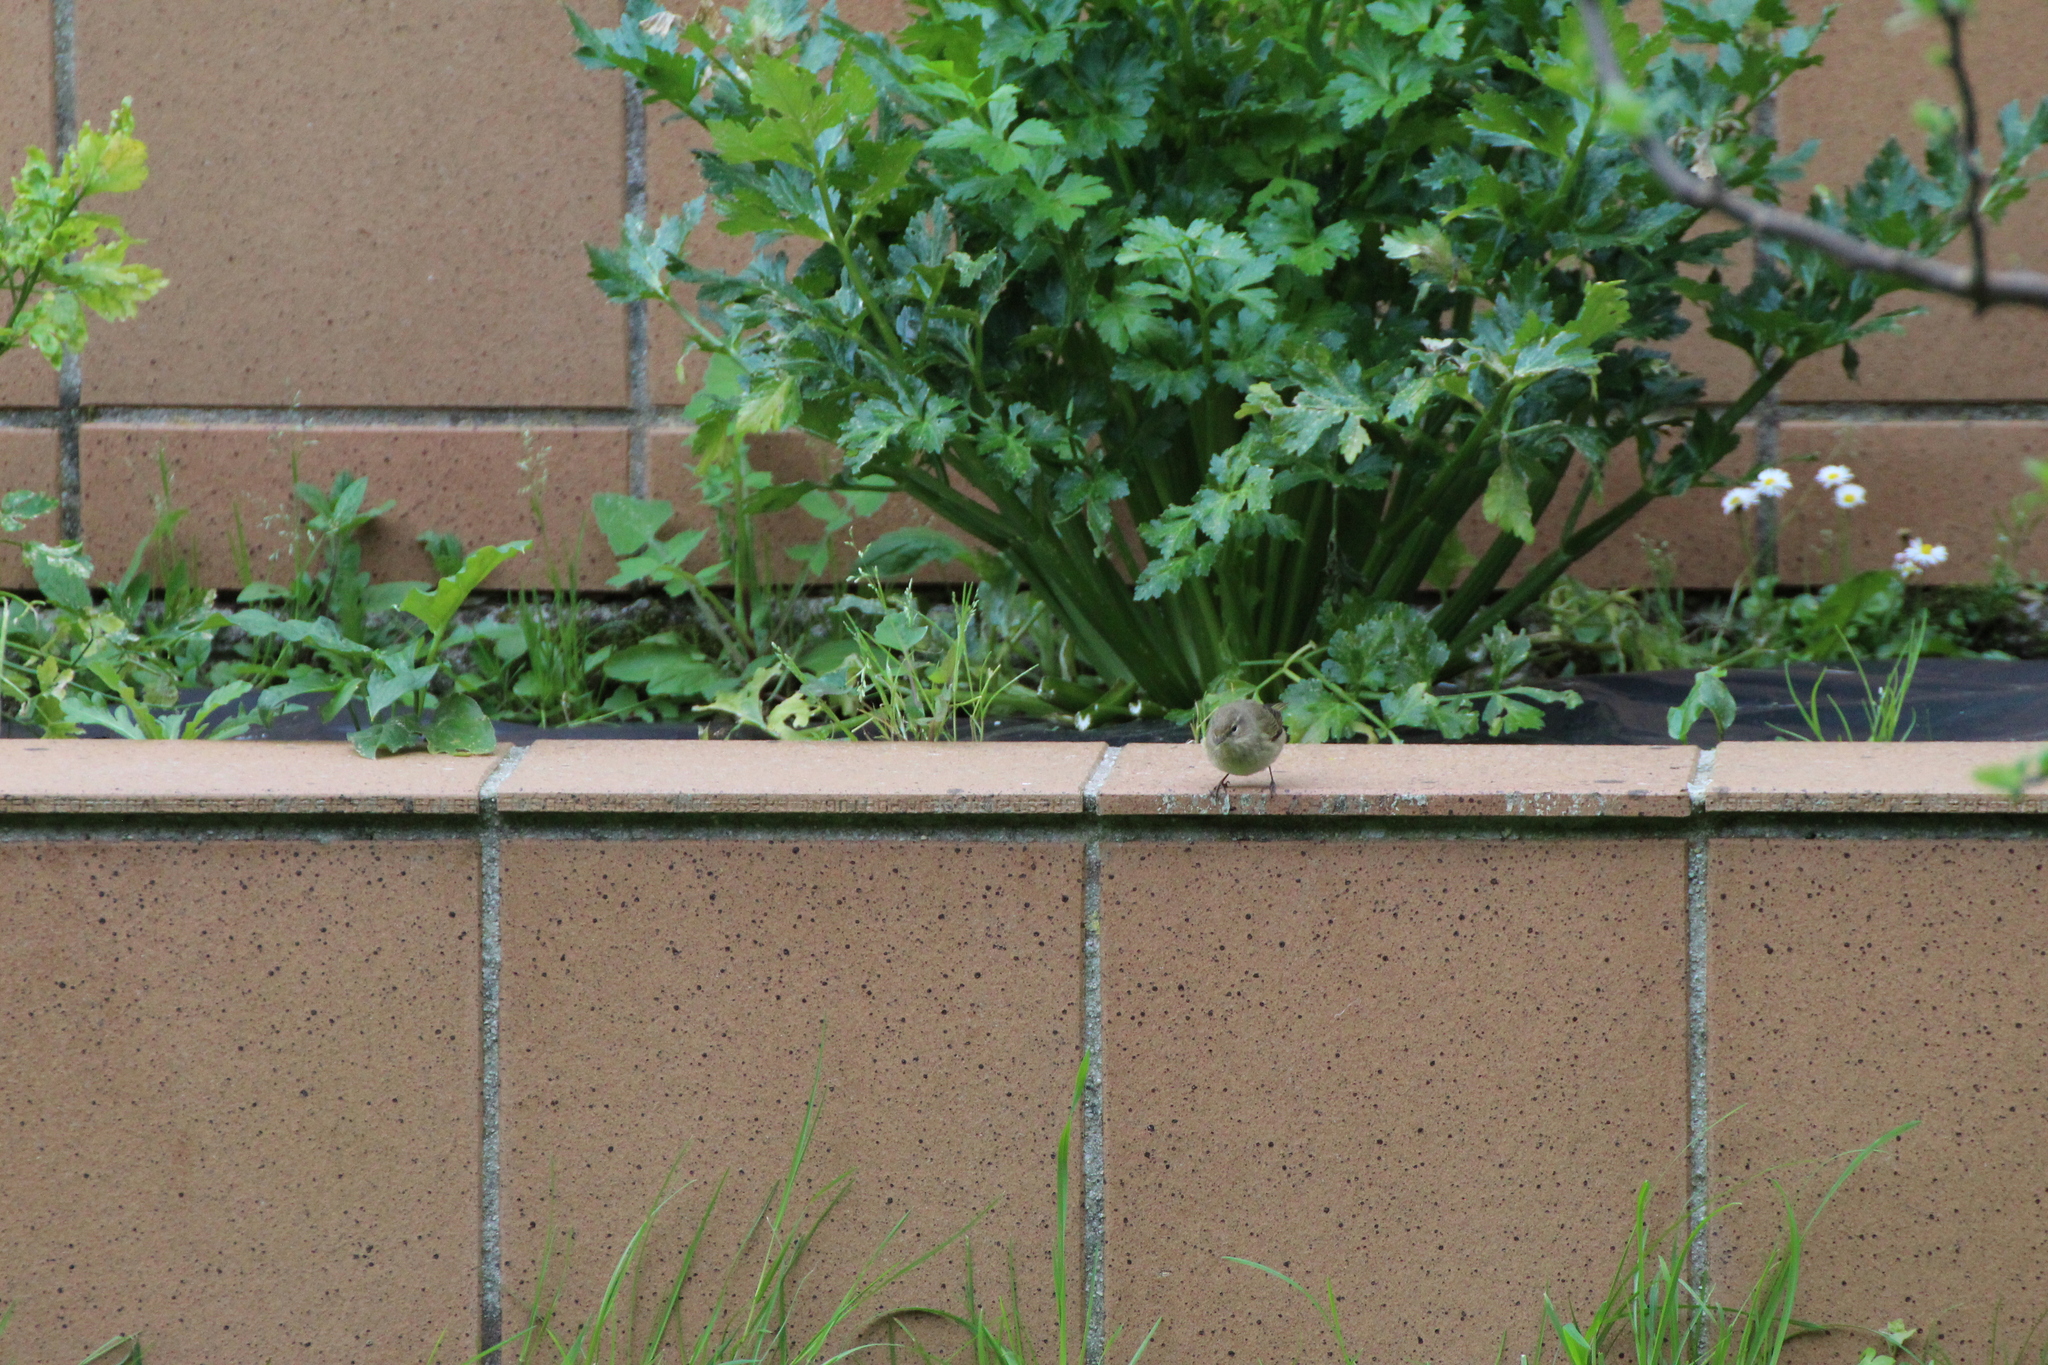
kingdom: Animalia
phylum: Chordata
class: Aves
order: Passeriformes
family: Phylloscopidae
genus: Phylloscopus
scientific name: Phylloscopus collybita
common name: Common chiffchaff
